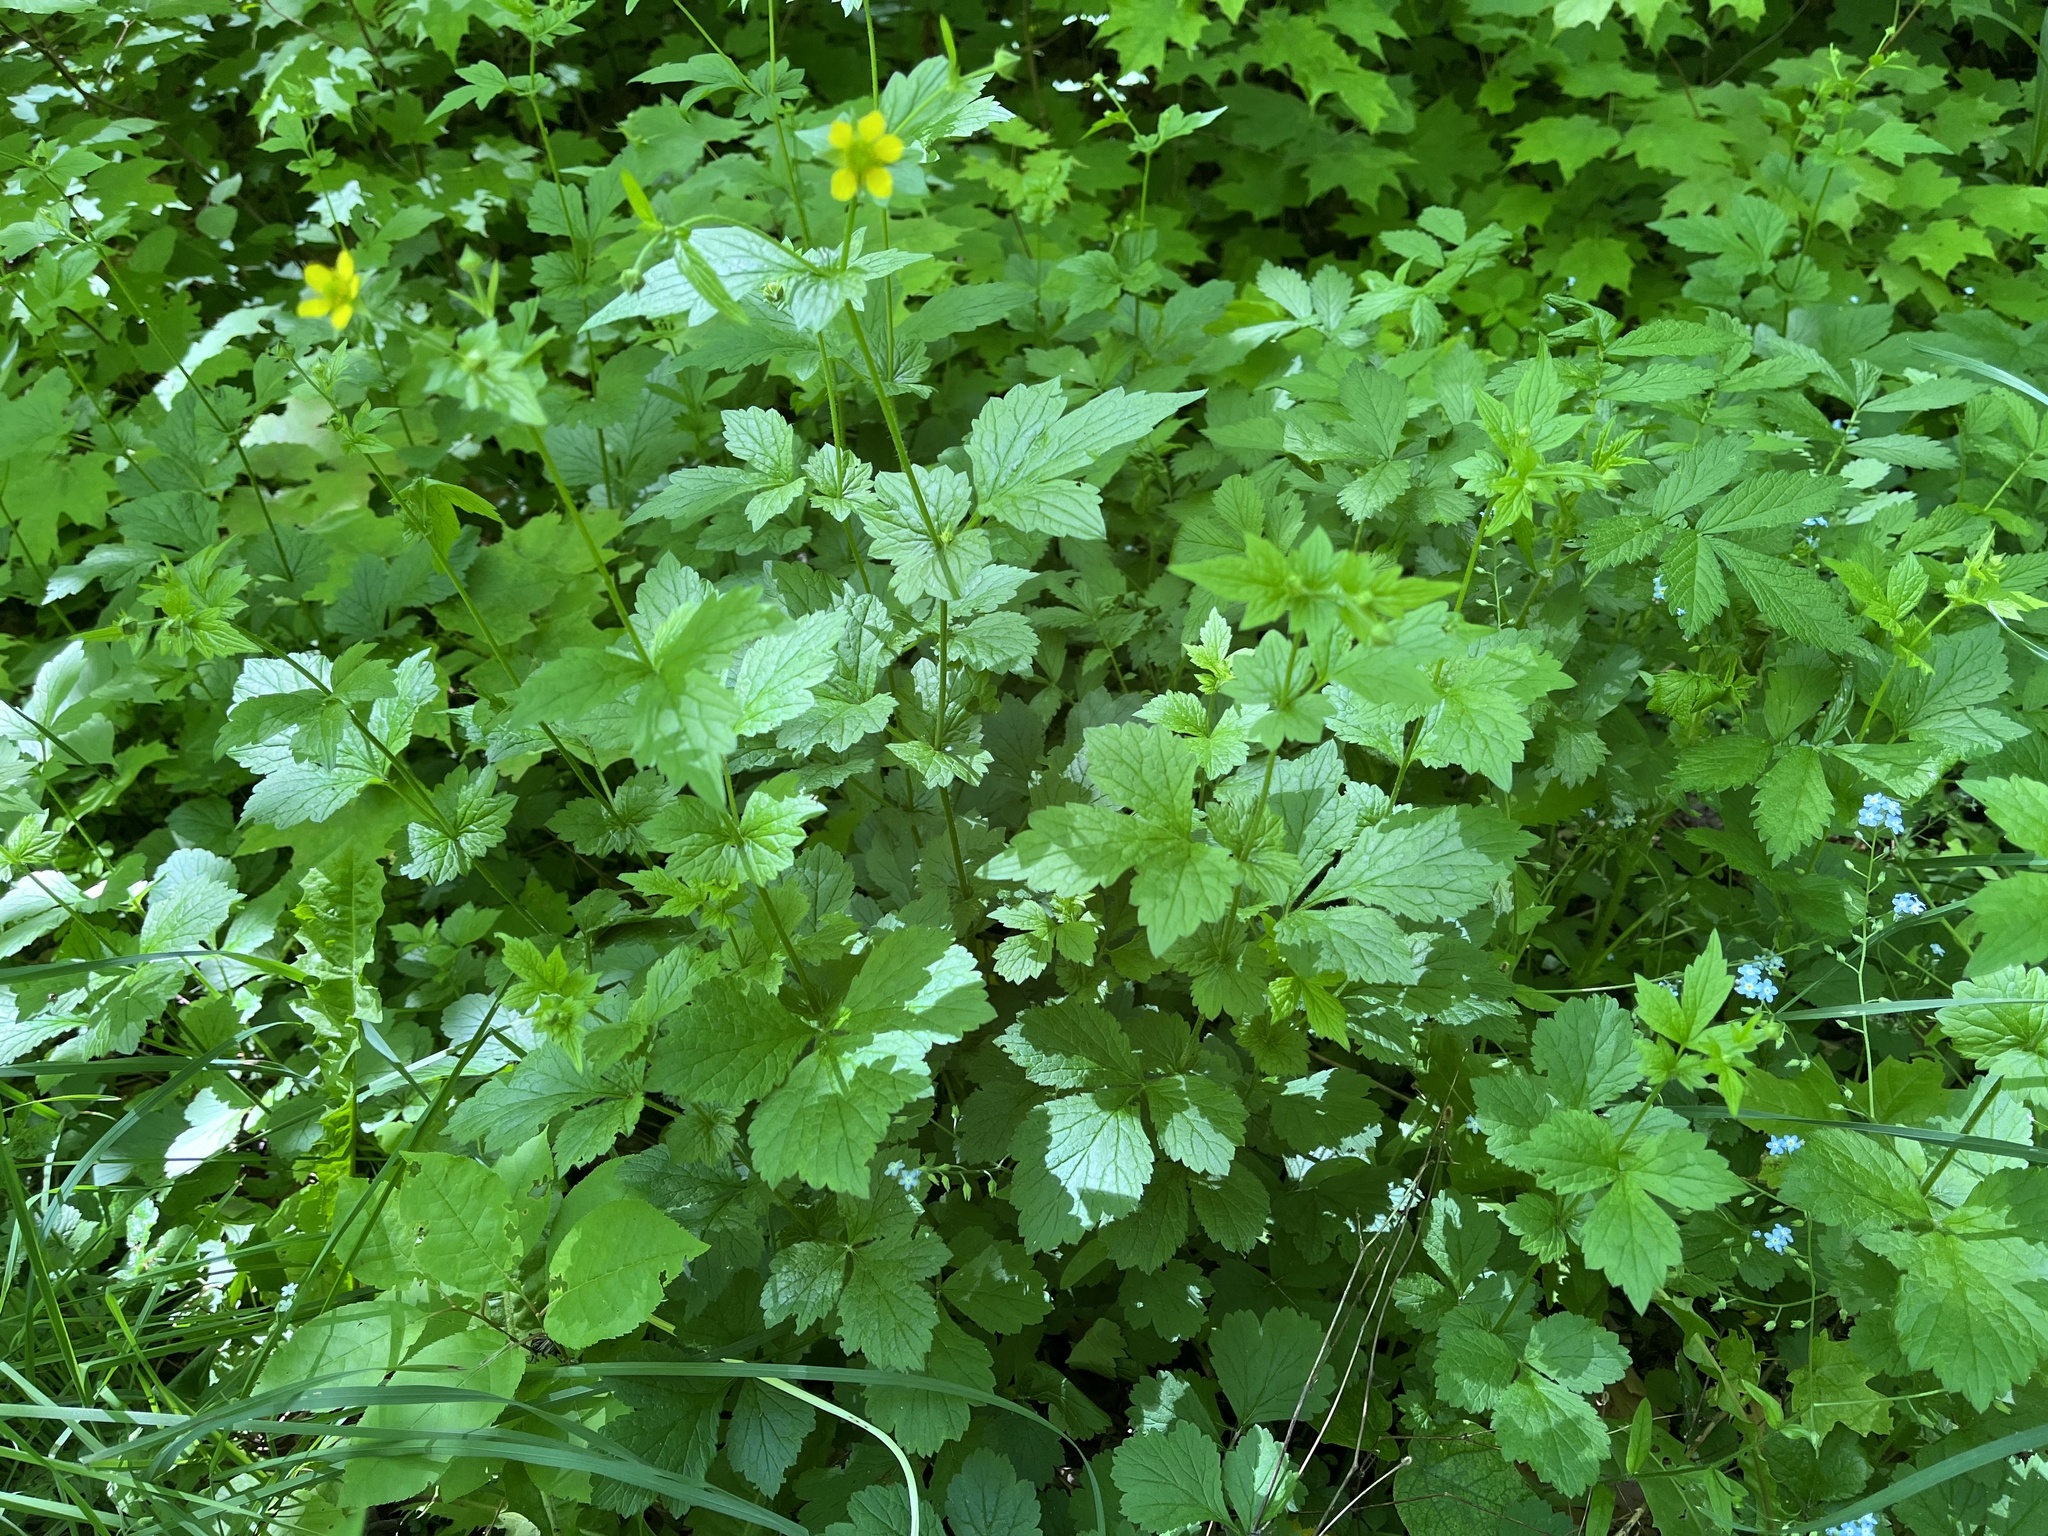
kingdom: Plantae
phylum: Tracheophyta
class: Magnoliopsida
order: Rosales
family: Rosaceae
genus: Geum
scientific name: Geum urbanum
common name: Wood avens
